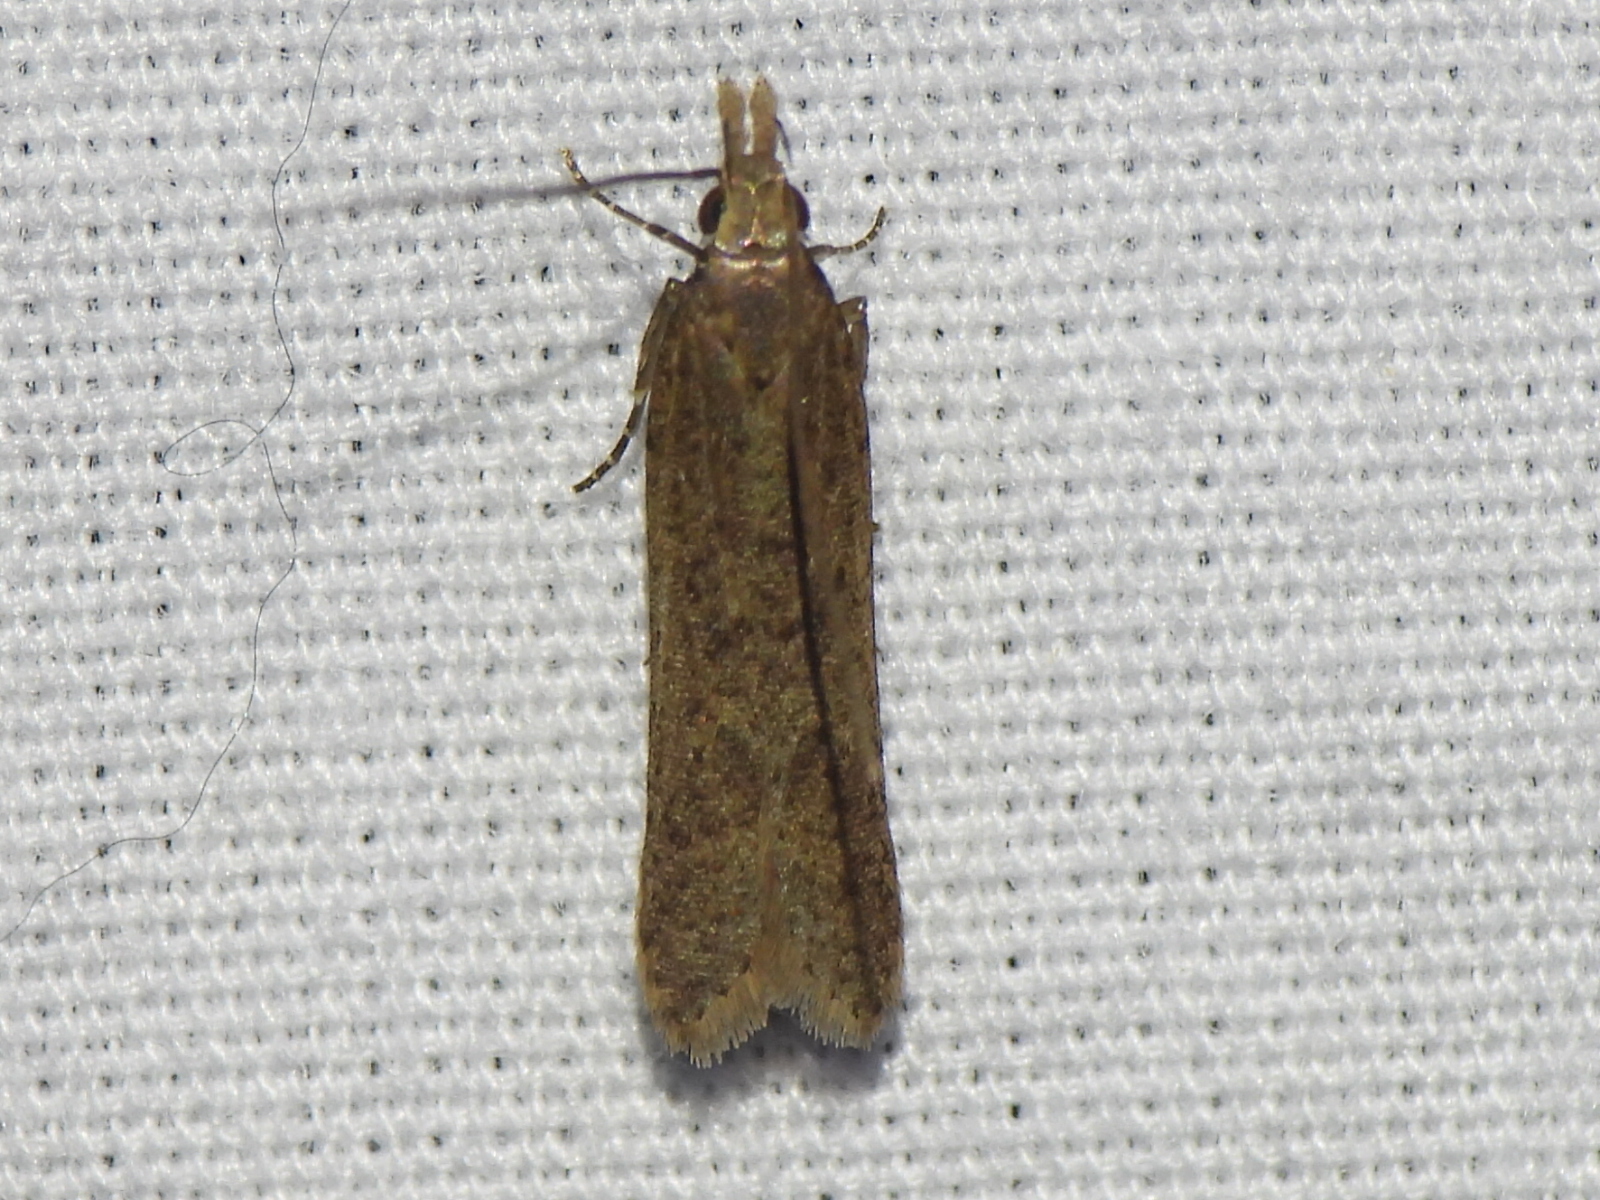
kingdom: Animalia
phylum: Arthropoda
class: Insecta
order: Lepidoptera
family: Gelechiidae
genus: Dichomeris
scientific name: Dichomeris ligulella
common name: Moth
